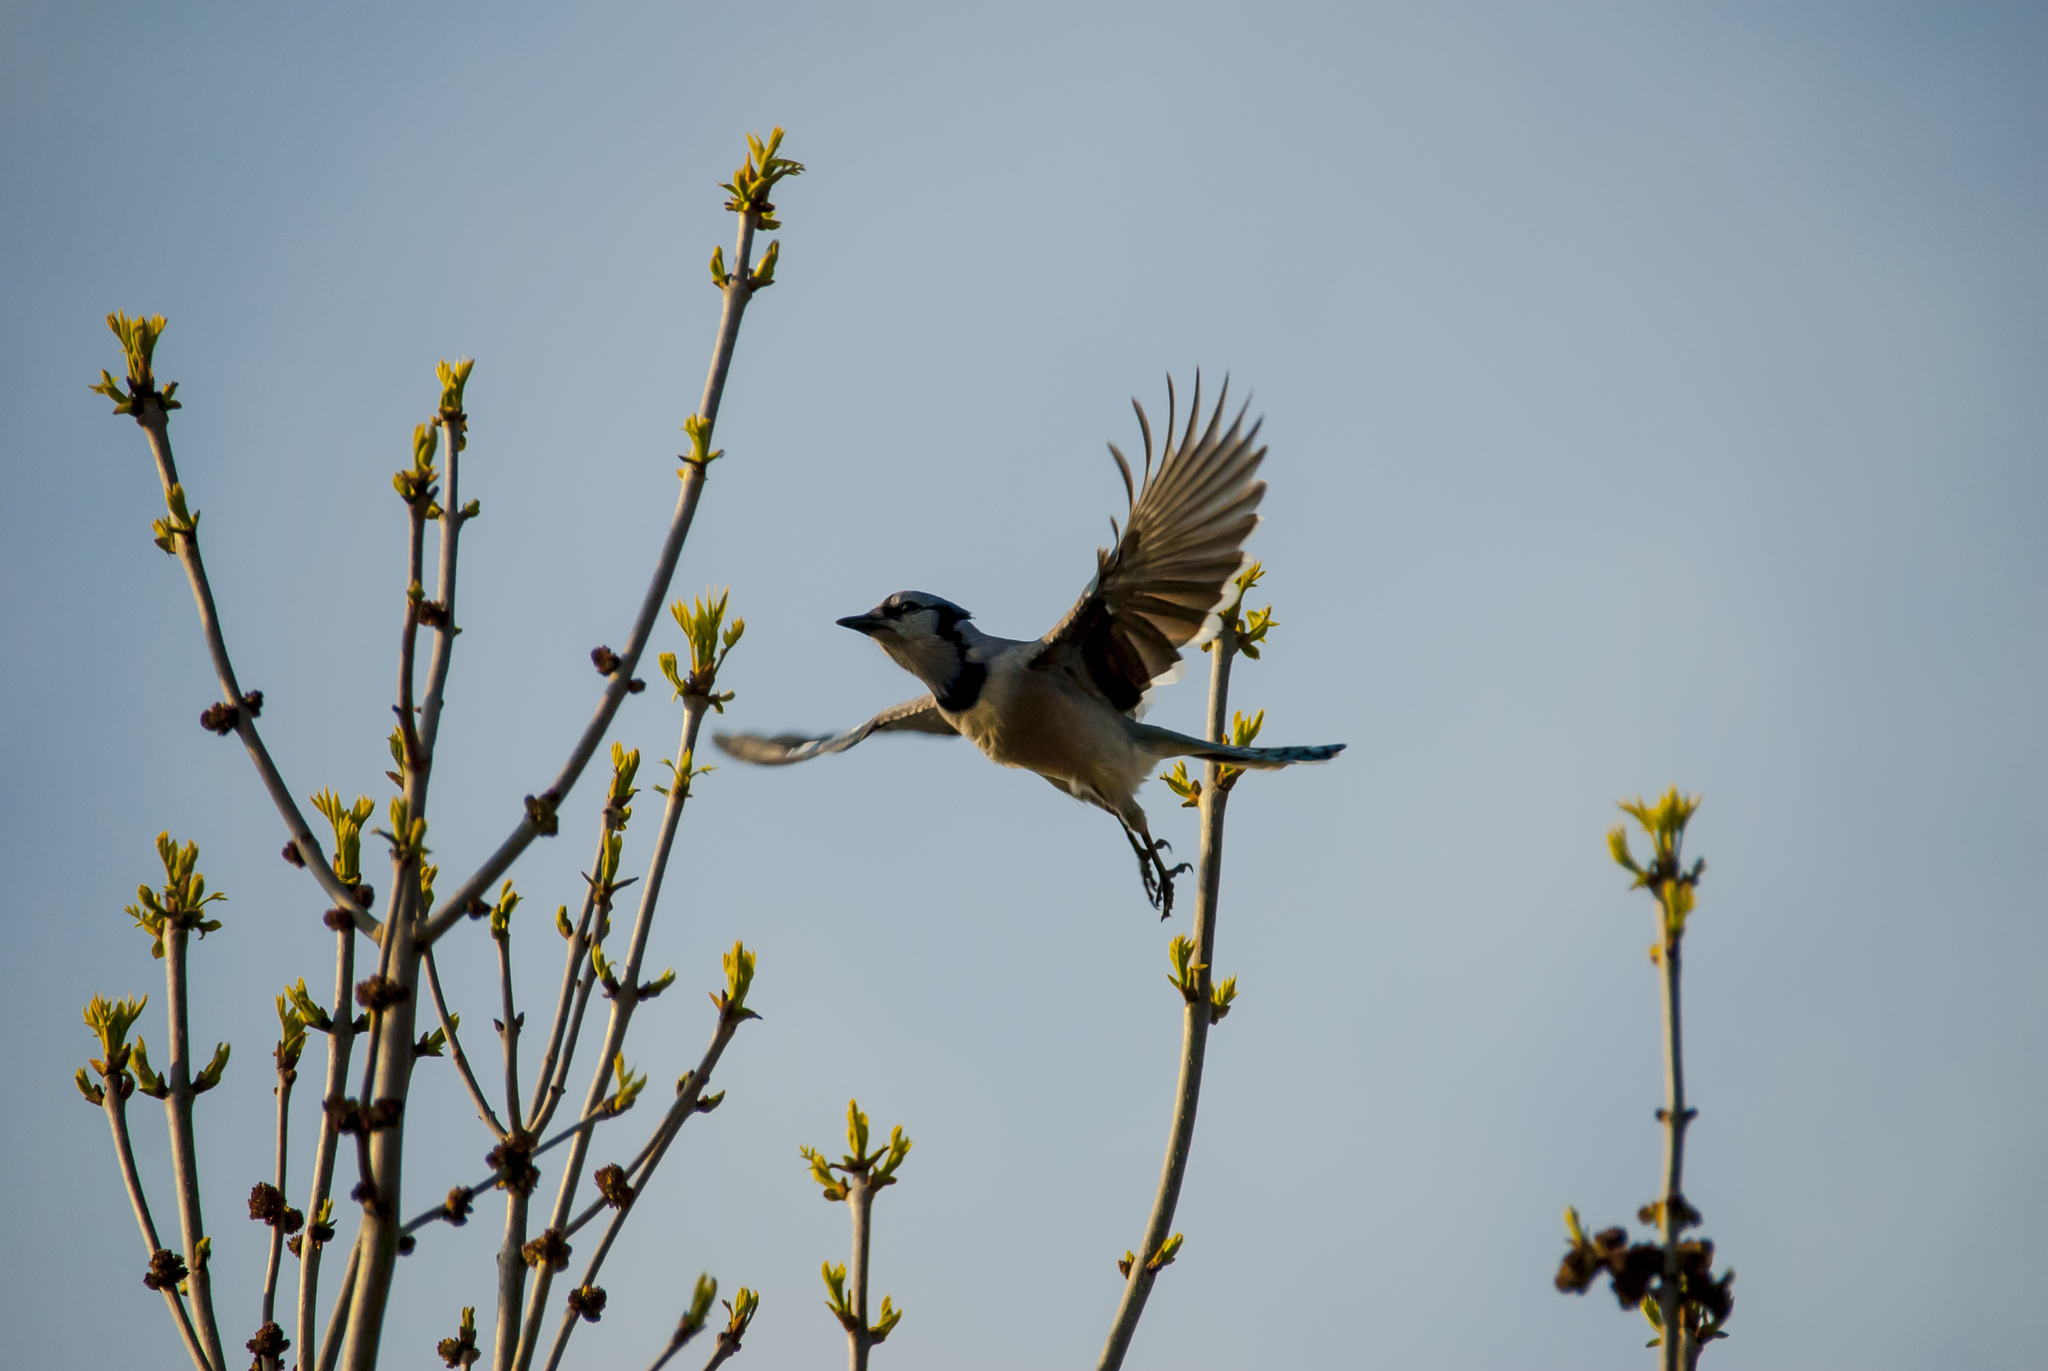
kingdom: Animalia
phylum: Chordata
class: Aves
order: Passeriformes
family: Corvidae
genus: Cyanocitta
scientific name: Cyanocitta cristata
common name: Blue jay
